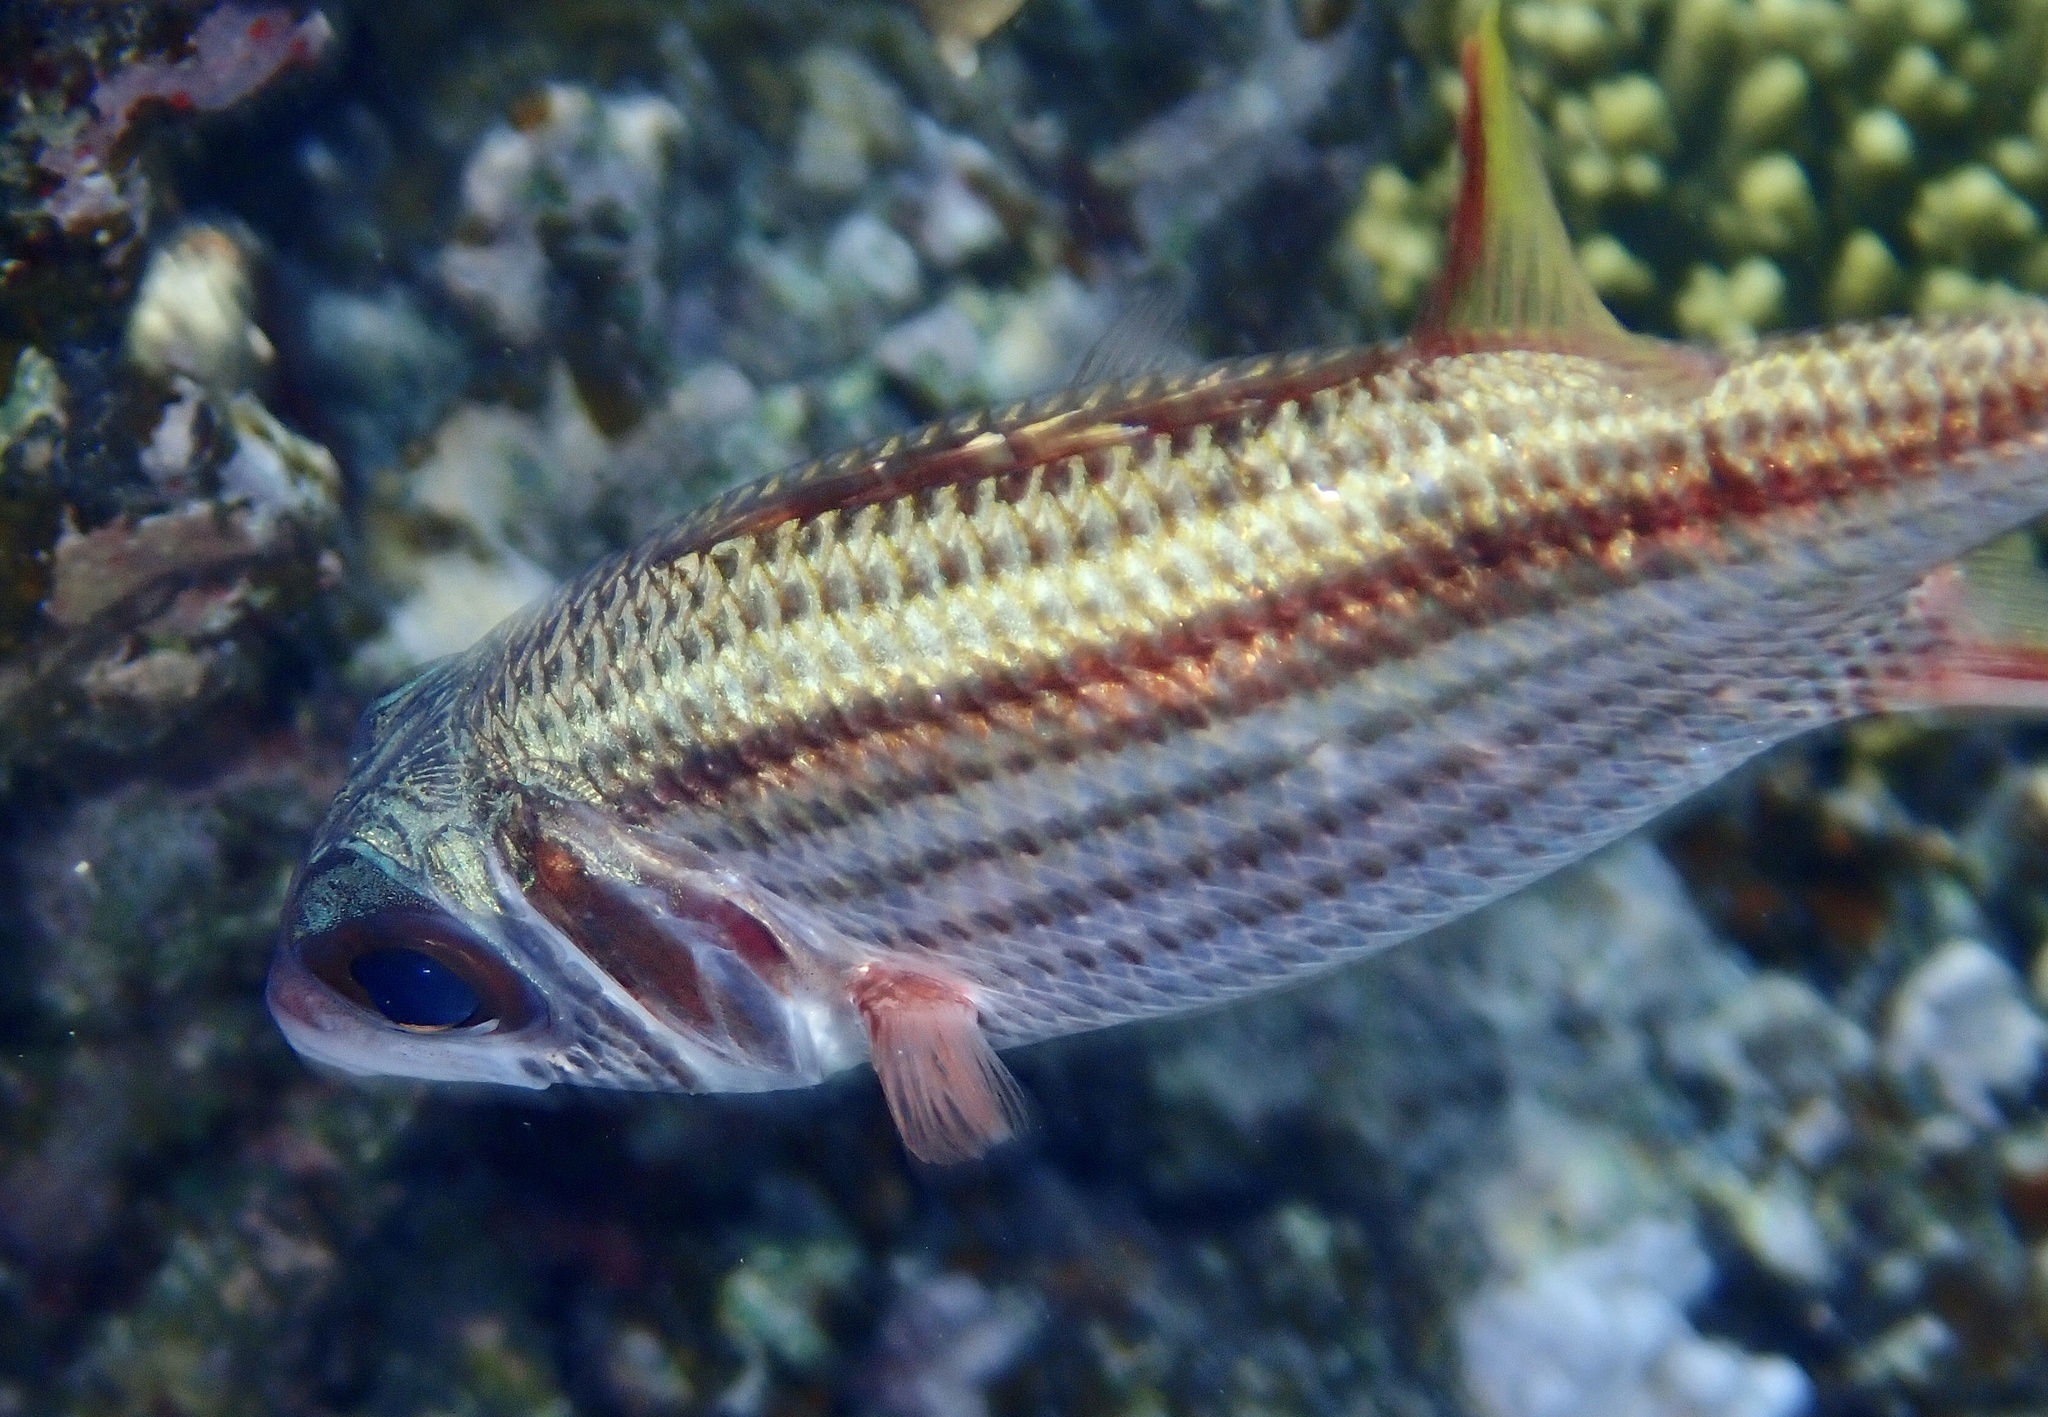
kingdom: Animalia
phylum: Chordata
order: Beryciformes
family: Holocentridae
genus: Neoniphon
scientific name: Neoniphon sammara
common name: Sammara squirrelfish
